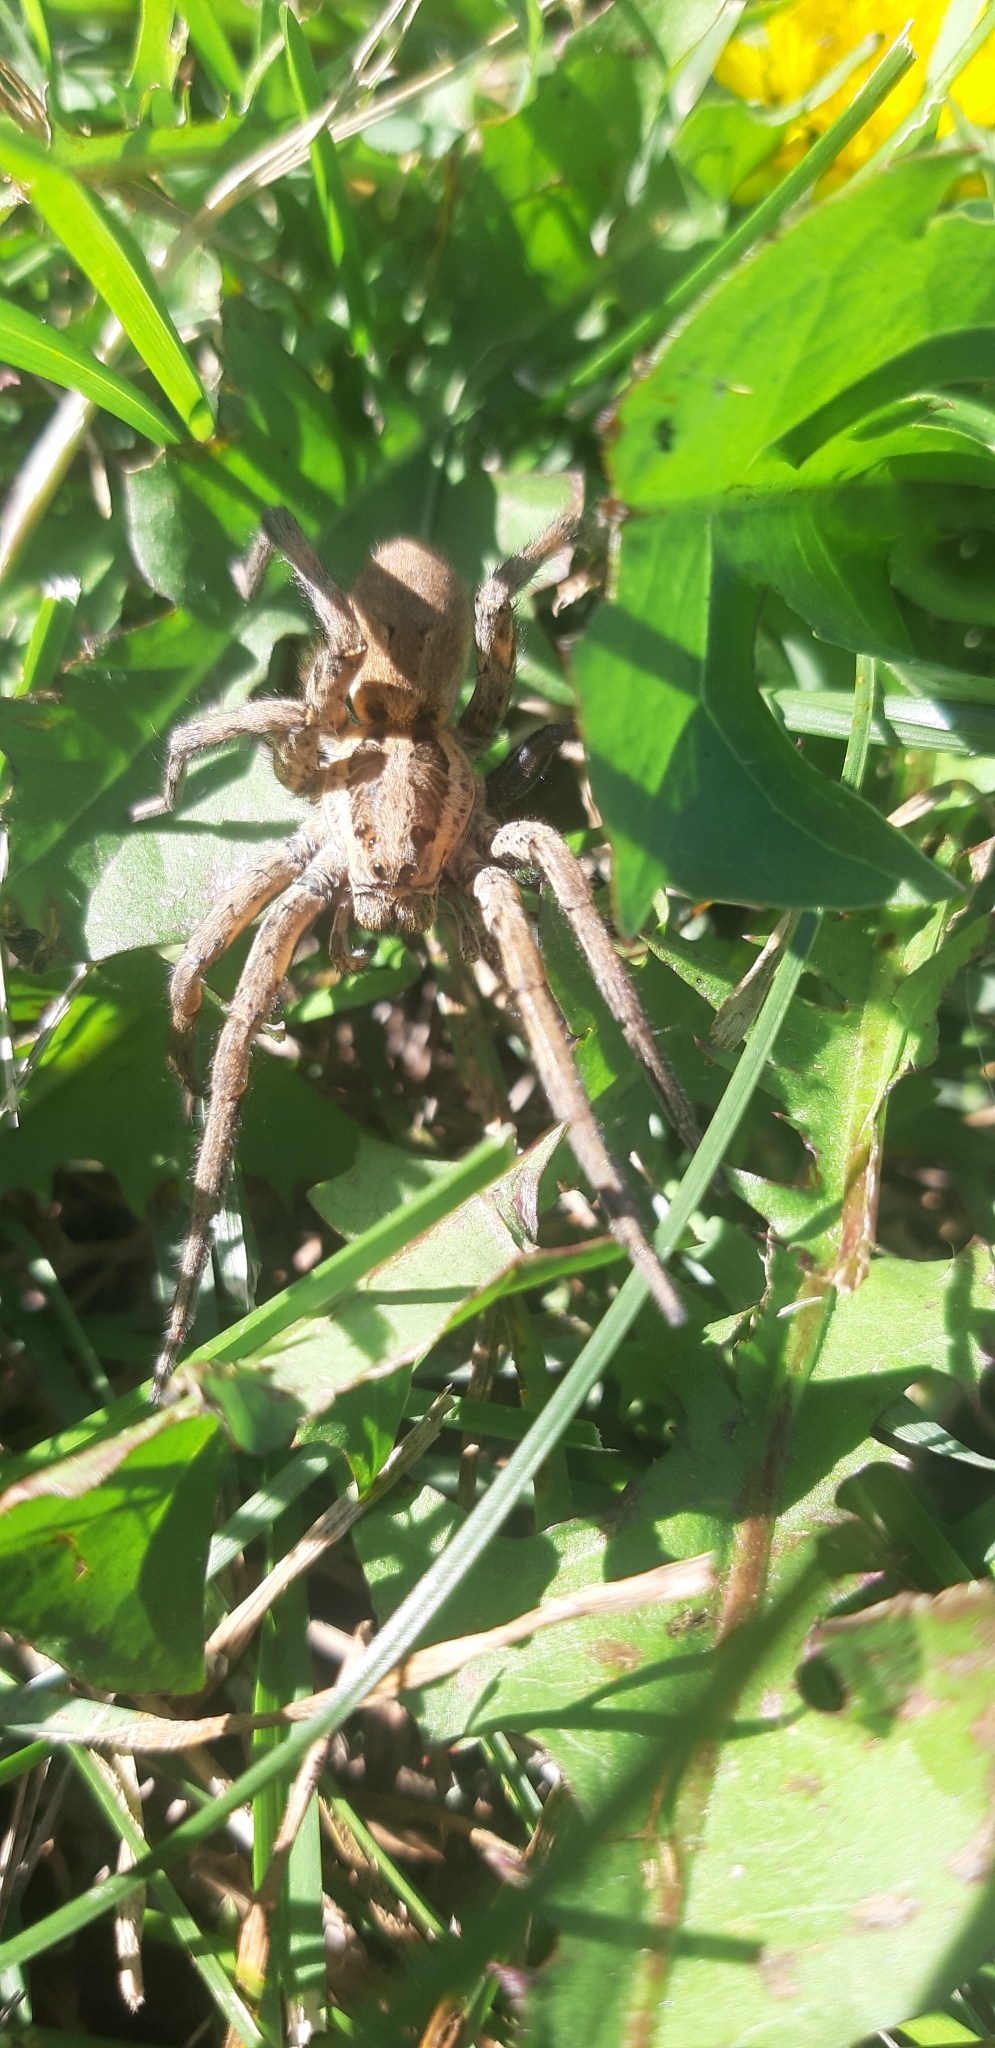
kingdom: Animalia
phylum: Arthropoda
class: Arachnida
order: Araneae
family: Lycosidae
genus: Hogna
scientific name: Hogna radiata
